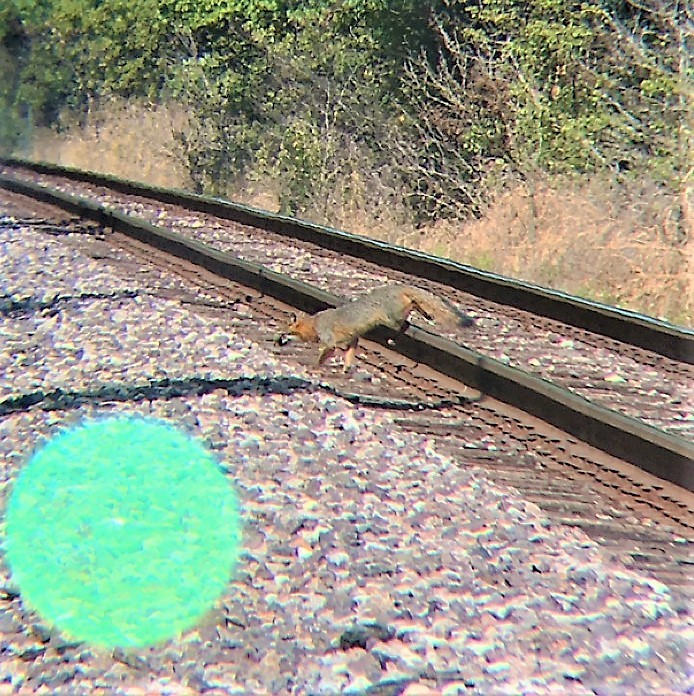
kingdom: Animalia
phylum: Chordata
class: Mammalia
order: Carnivora
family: Canidae
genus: Urocyon
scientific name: Urocyon cinereoargenteus
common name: Gray fox
